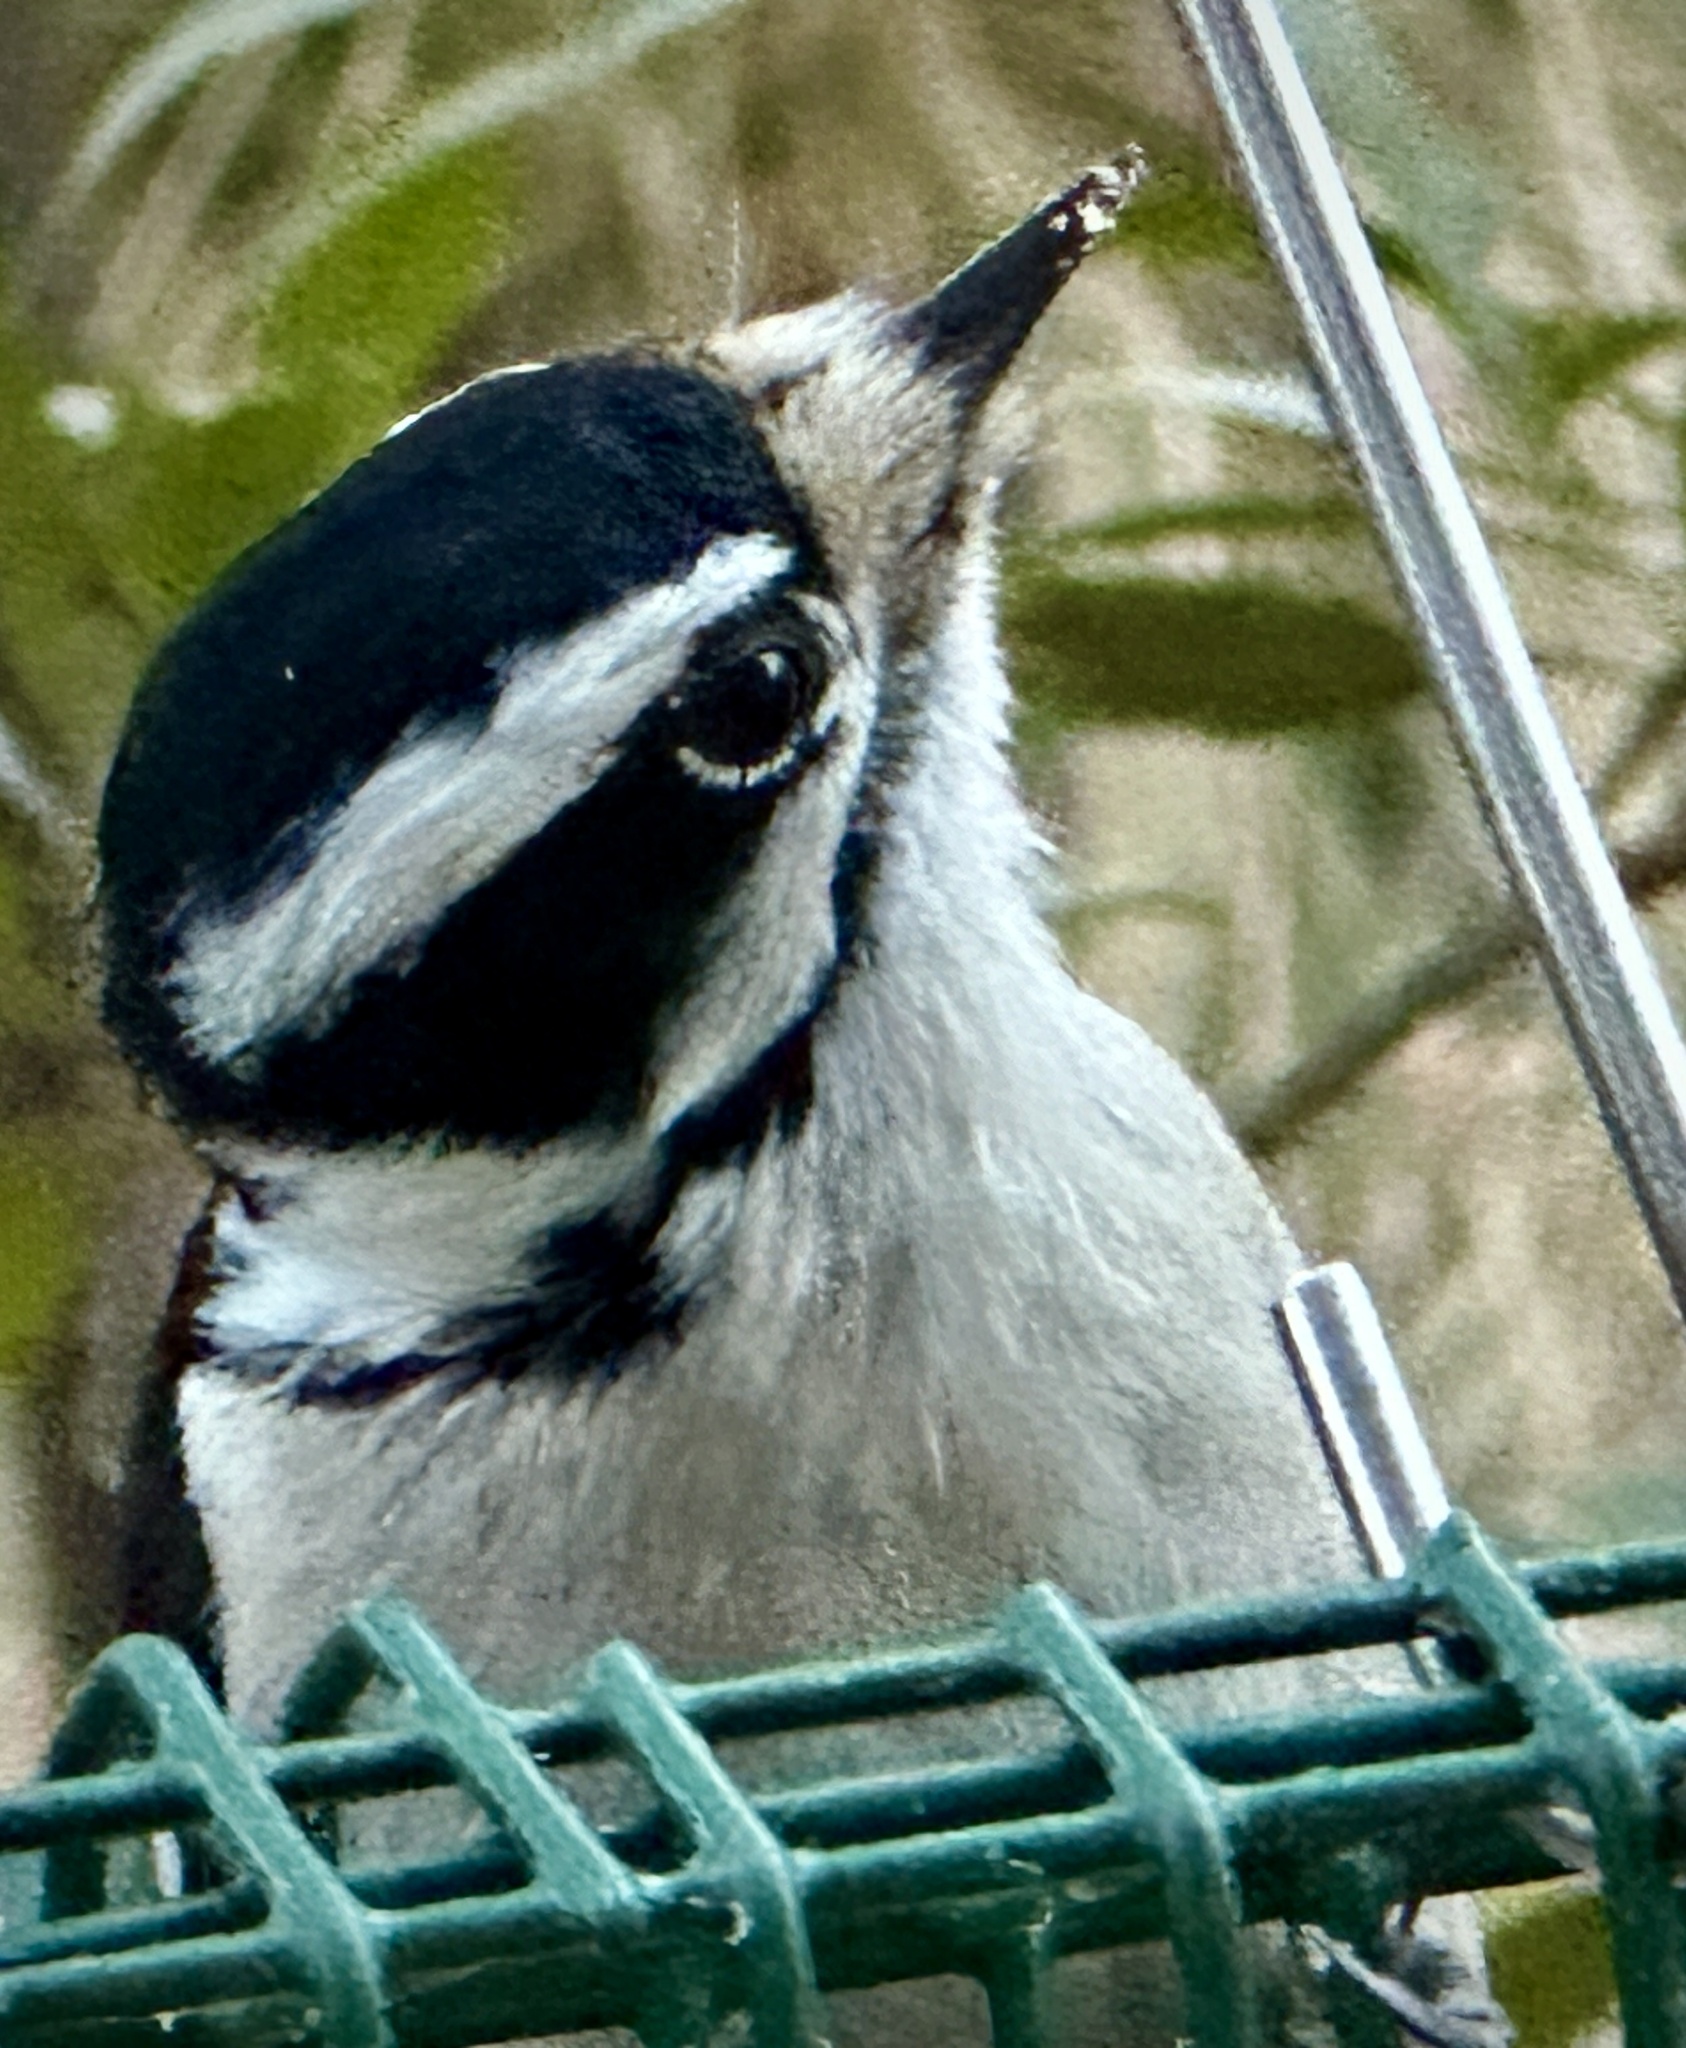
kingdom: Animalia
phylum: Chordata
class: Aves
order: Piciformes
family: Picidae
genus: Dryobates
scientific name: Dryobates pubescens
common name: Downy woodpecker
